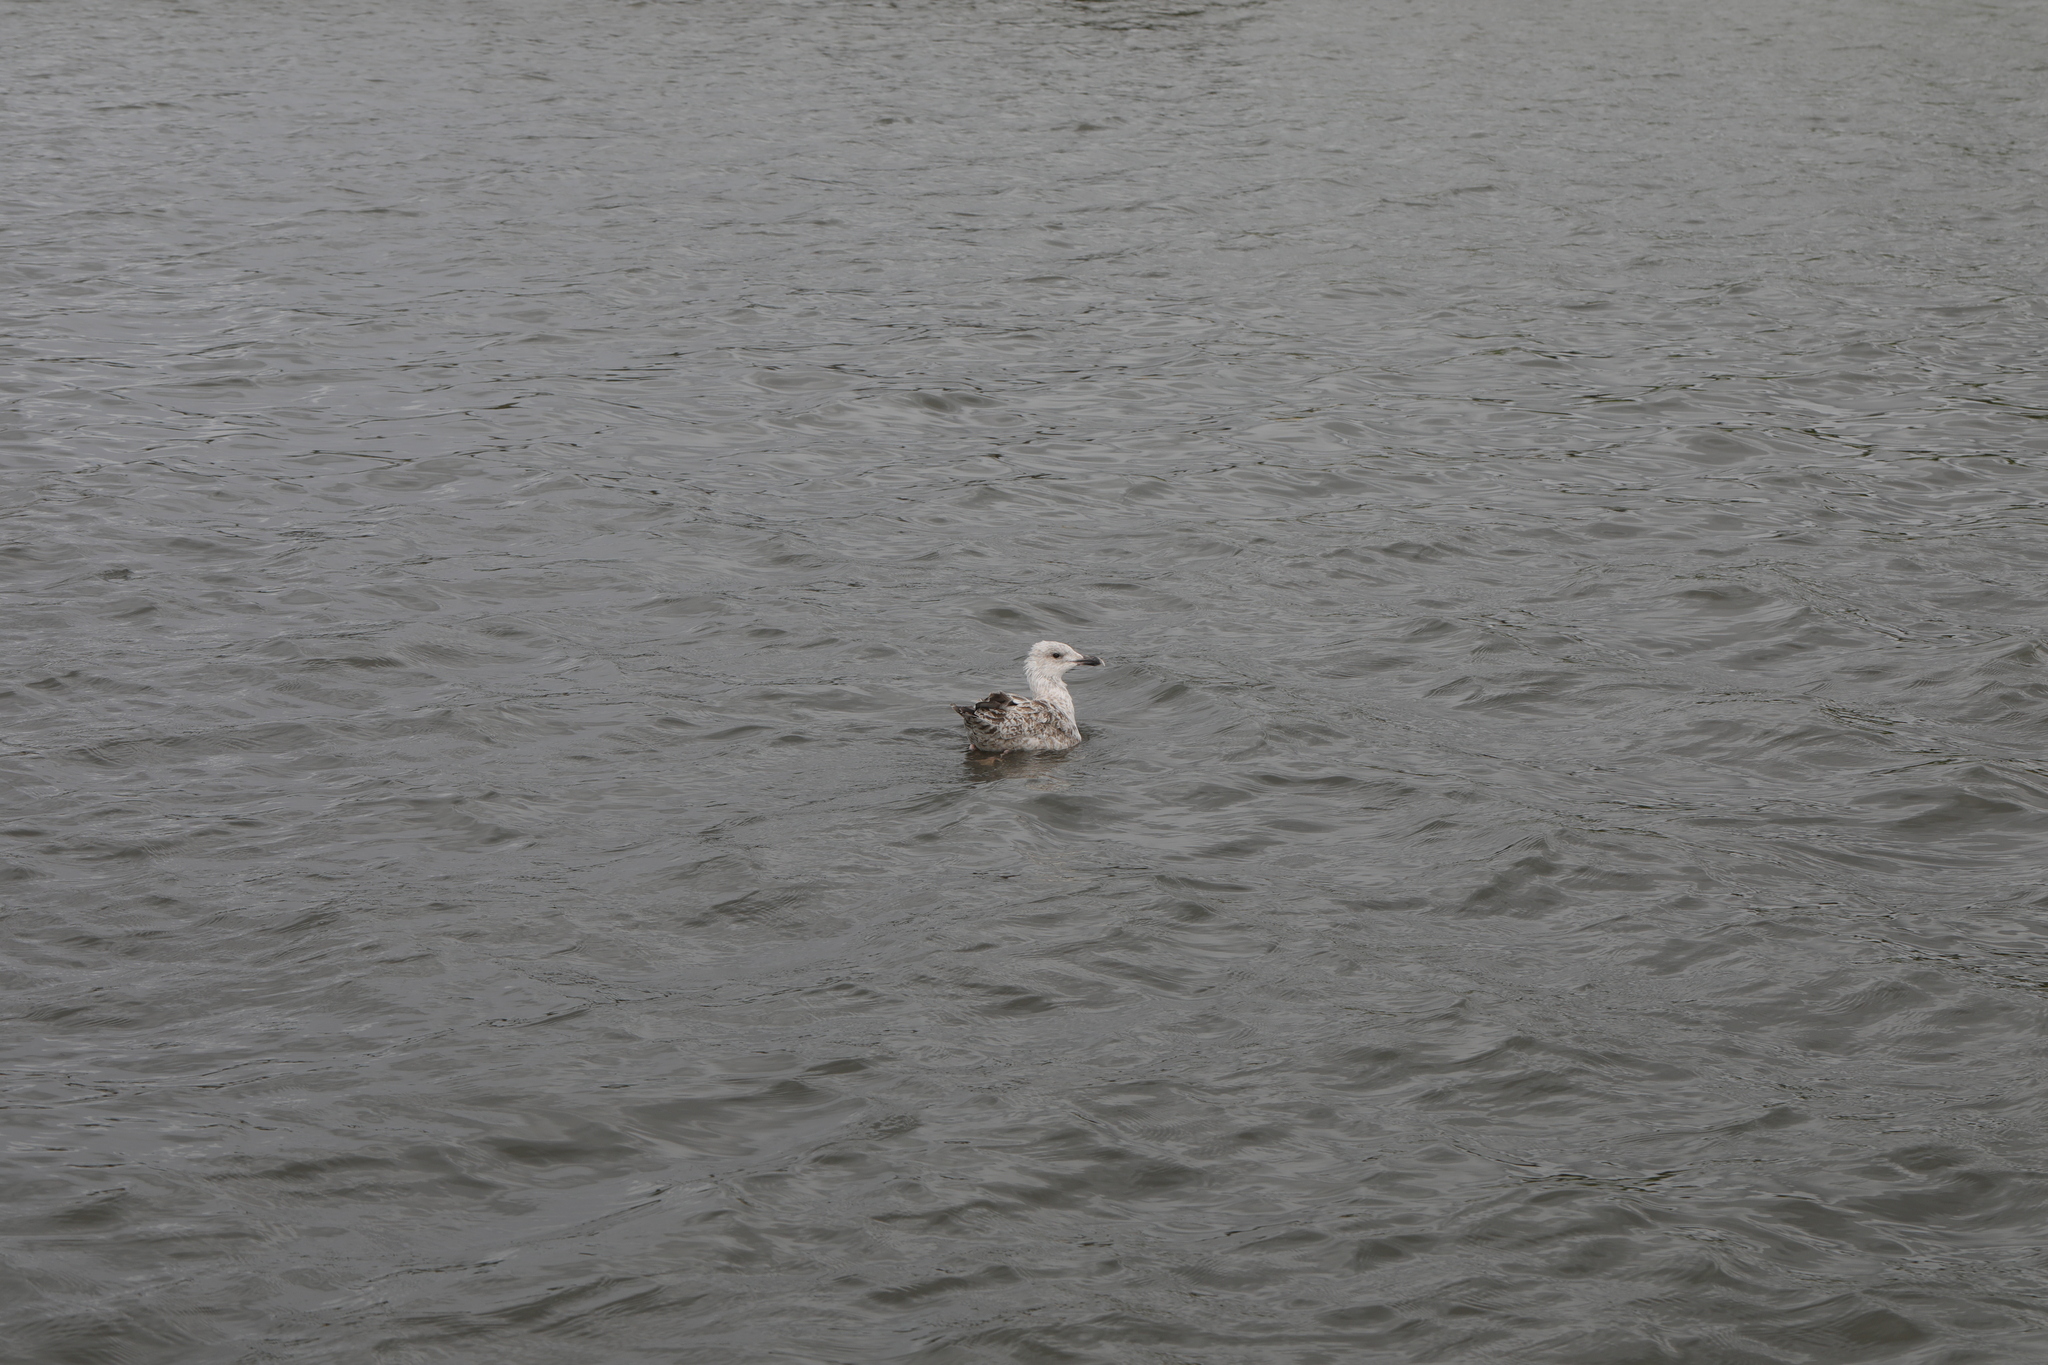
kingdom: Animalia
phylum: Chordata
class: Aves
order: Charadriiformes
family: Laridae
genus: Larus
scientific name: Larus argentatus
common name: Herring gull
